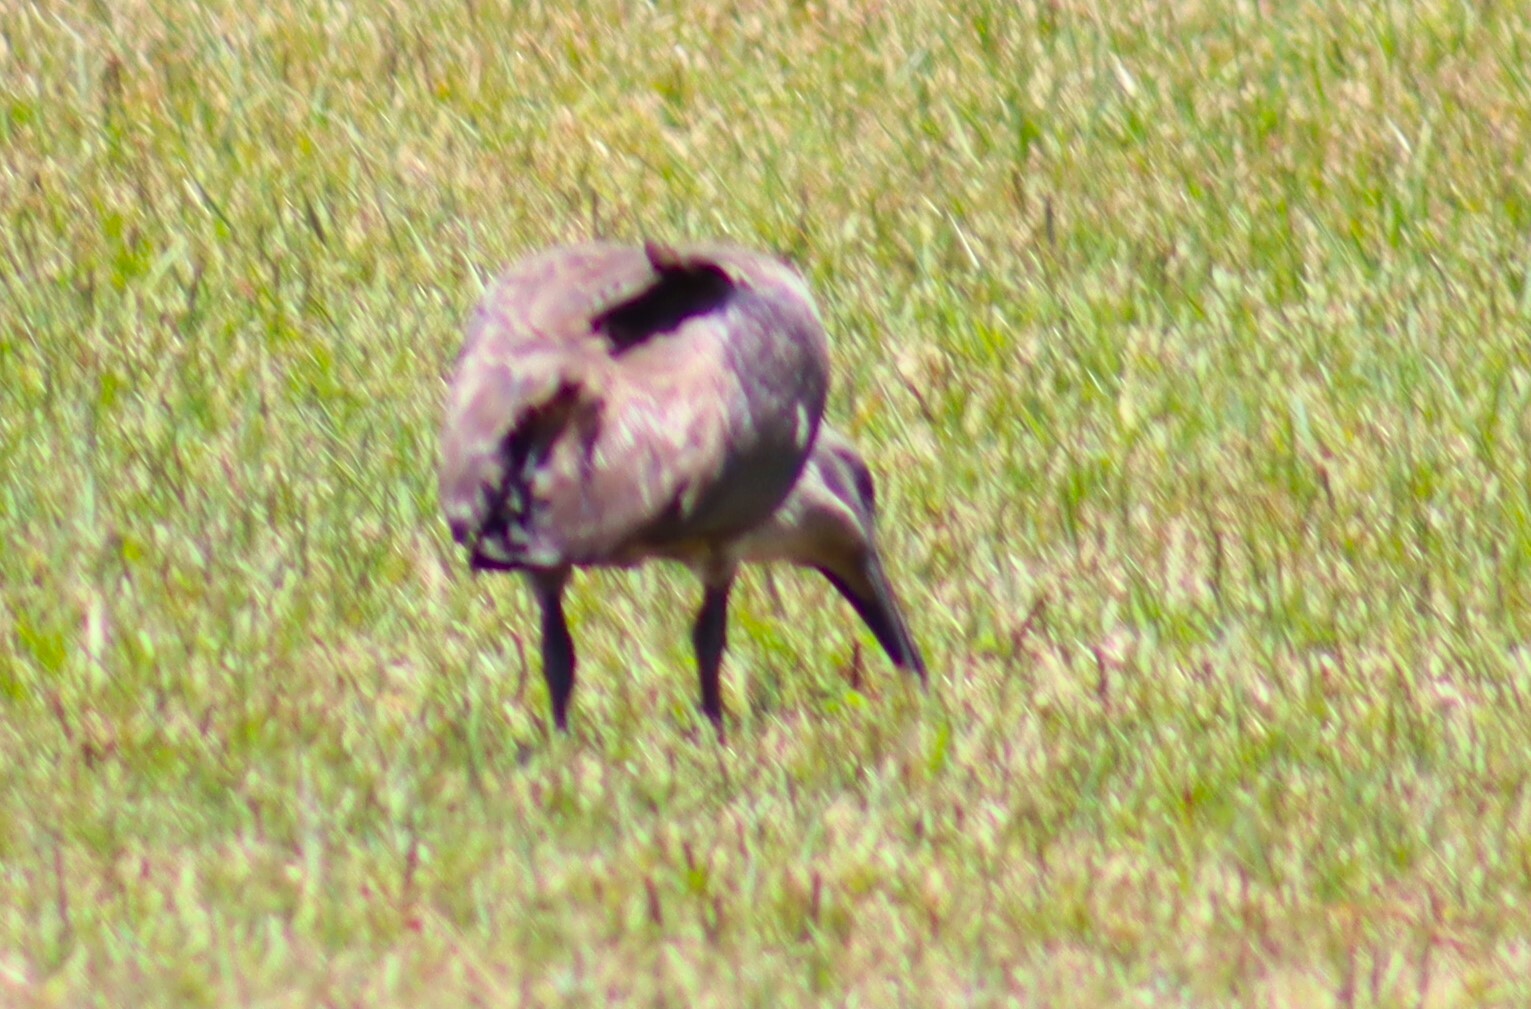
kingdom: Animalia
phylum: Chordata
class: Aves
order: Pelecaniformes
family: Threskiornithidae
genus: Bostrychia
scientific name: Bostrychia hagedash
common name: Hadada ibis
